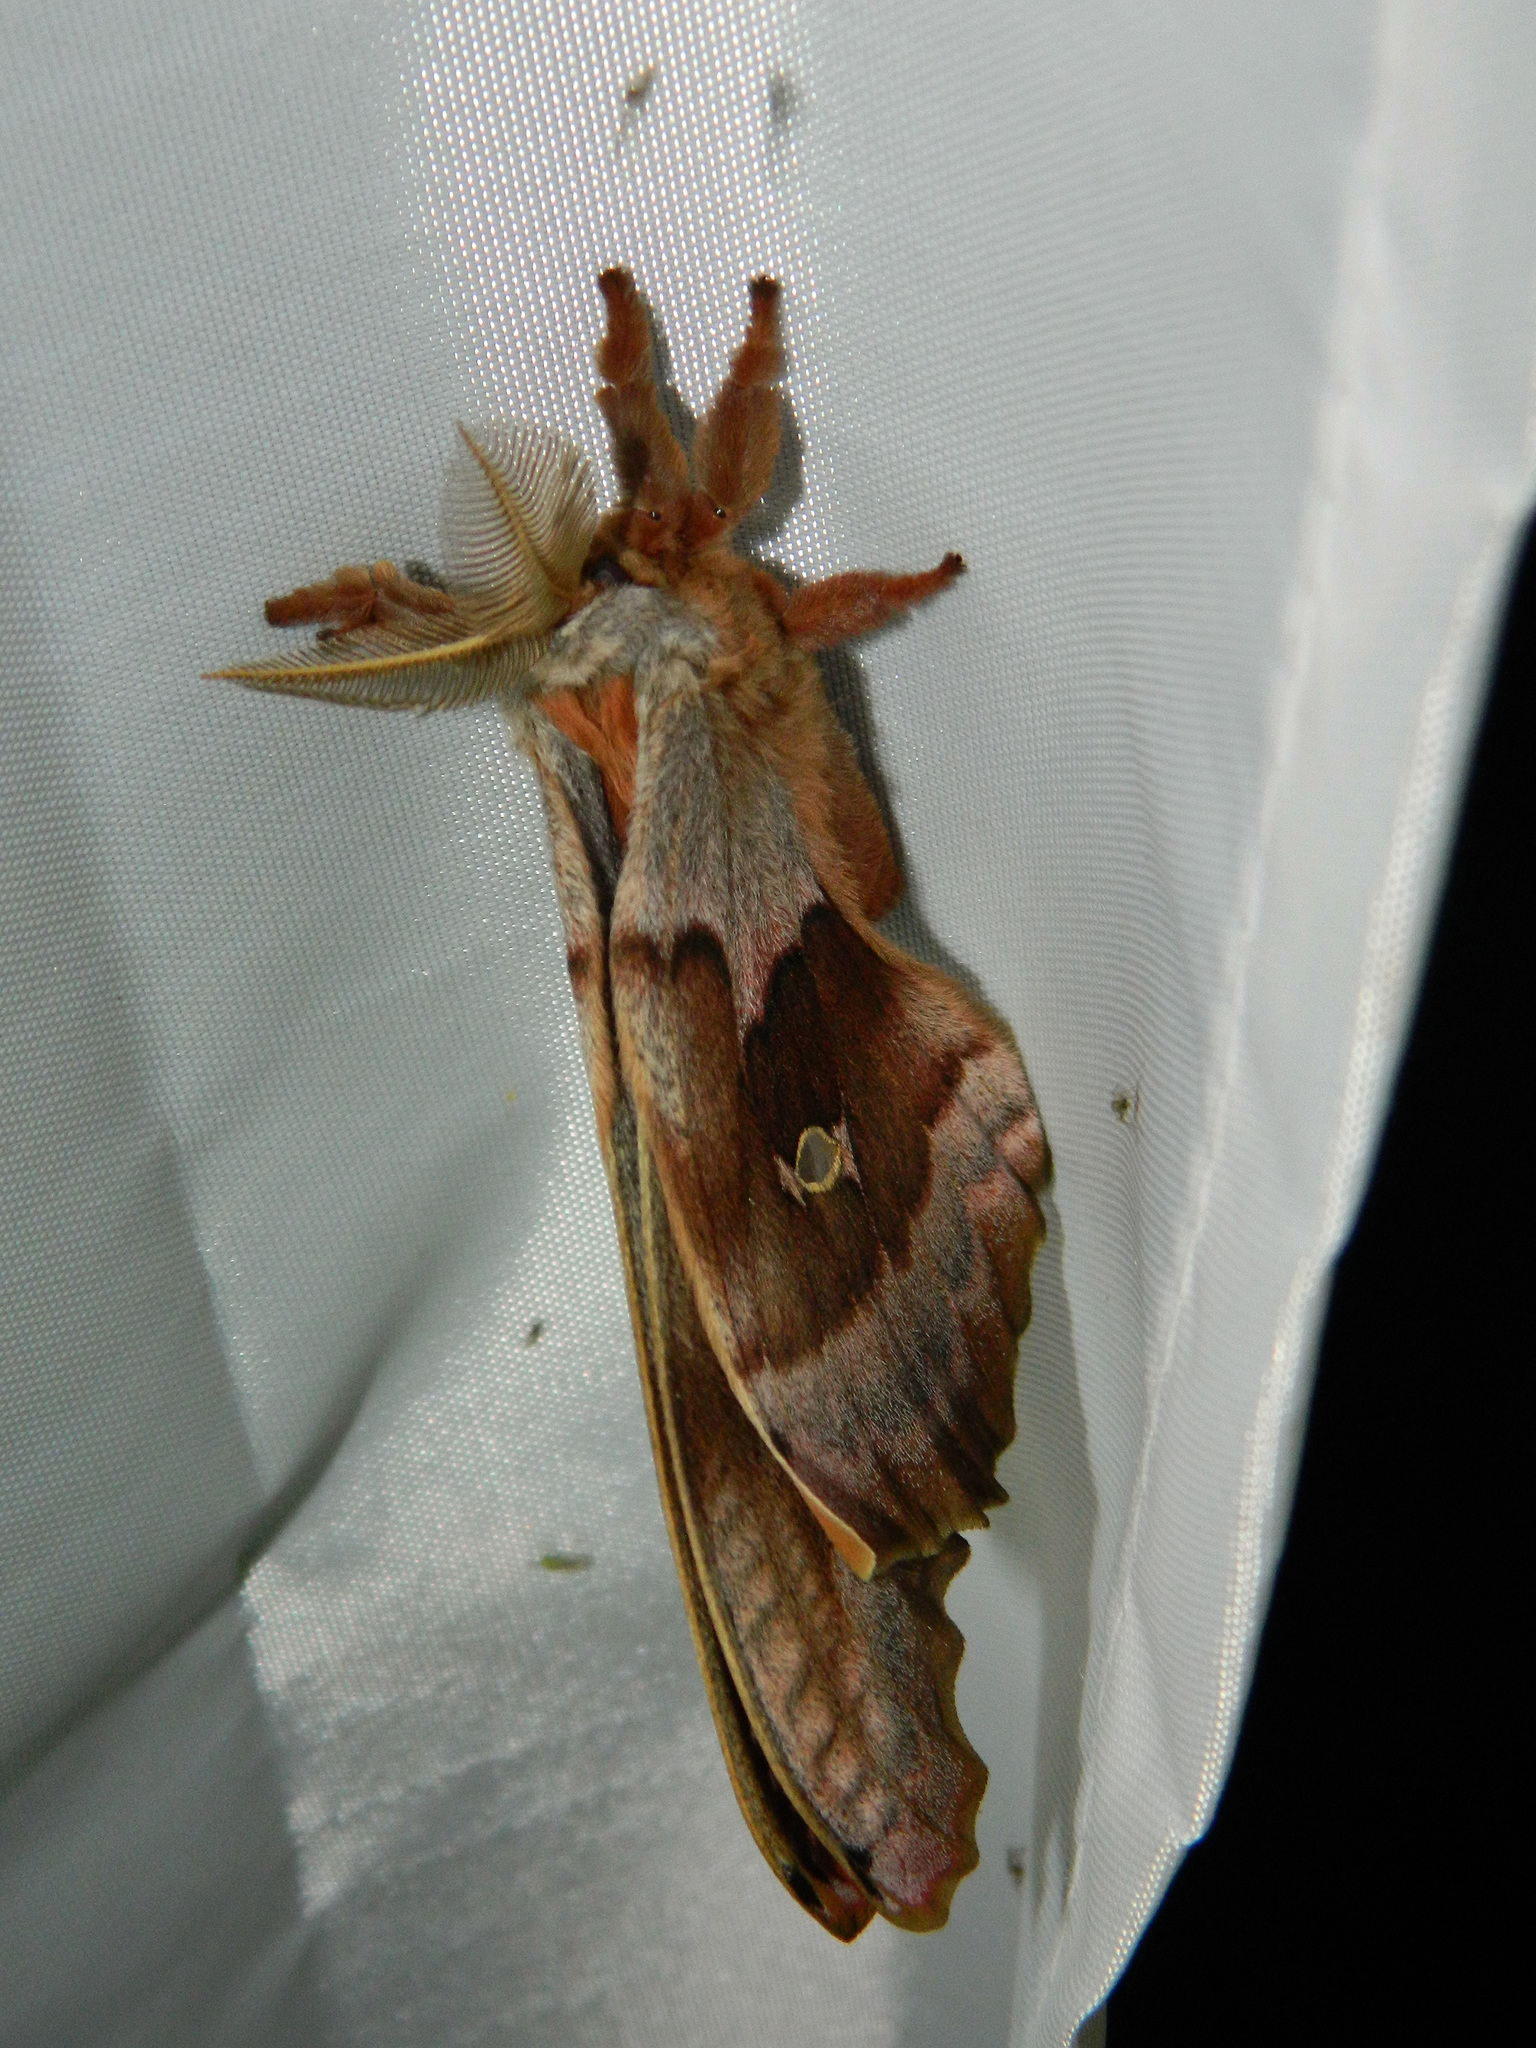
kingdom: Animalia
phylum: Arthropoda
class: Insecta
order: Lepidoptera
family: Saturniidae
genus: Antheraea
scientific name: Antheraea polyphemus
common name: Polyphemus moth
